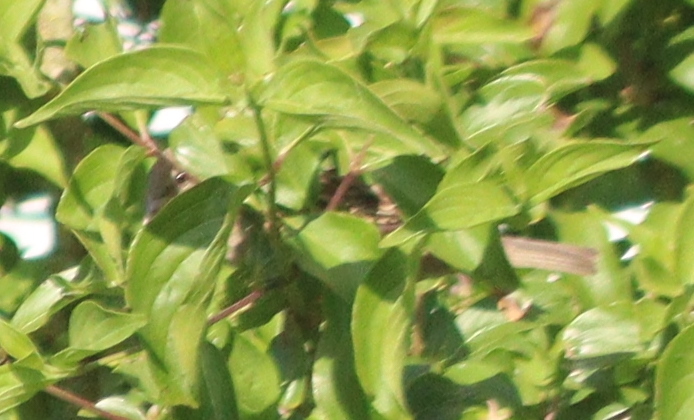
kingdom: Animalia
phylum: Chordata
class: Aves
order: Passeriformes
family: Passeridae
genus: Passer
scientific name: Passer domesticus
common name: House sparrow
